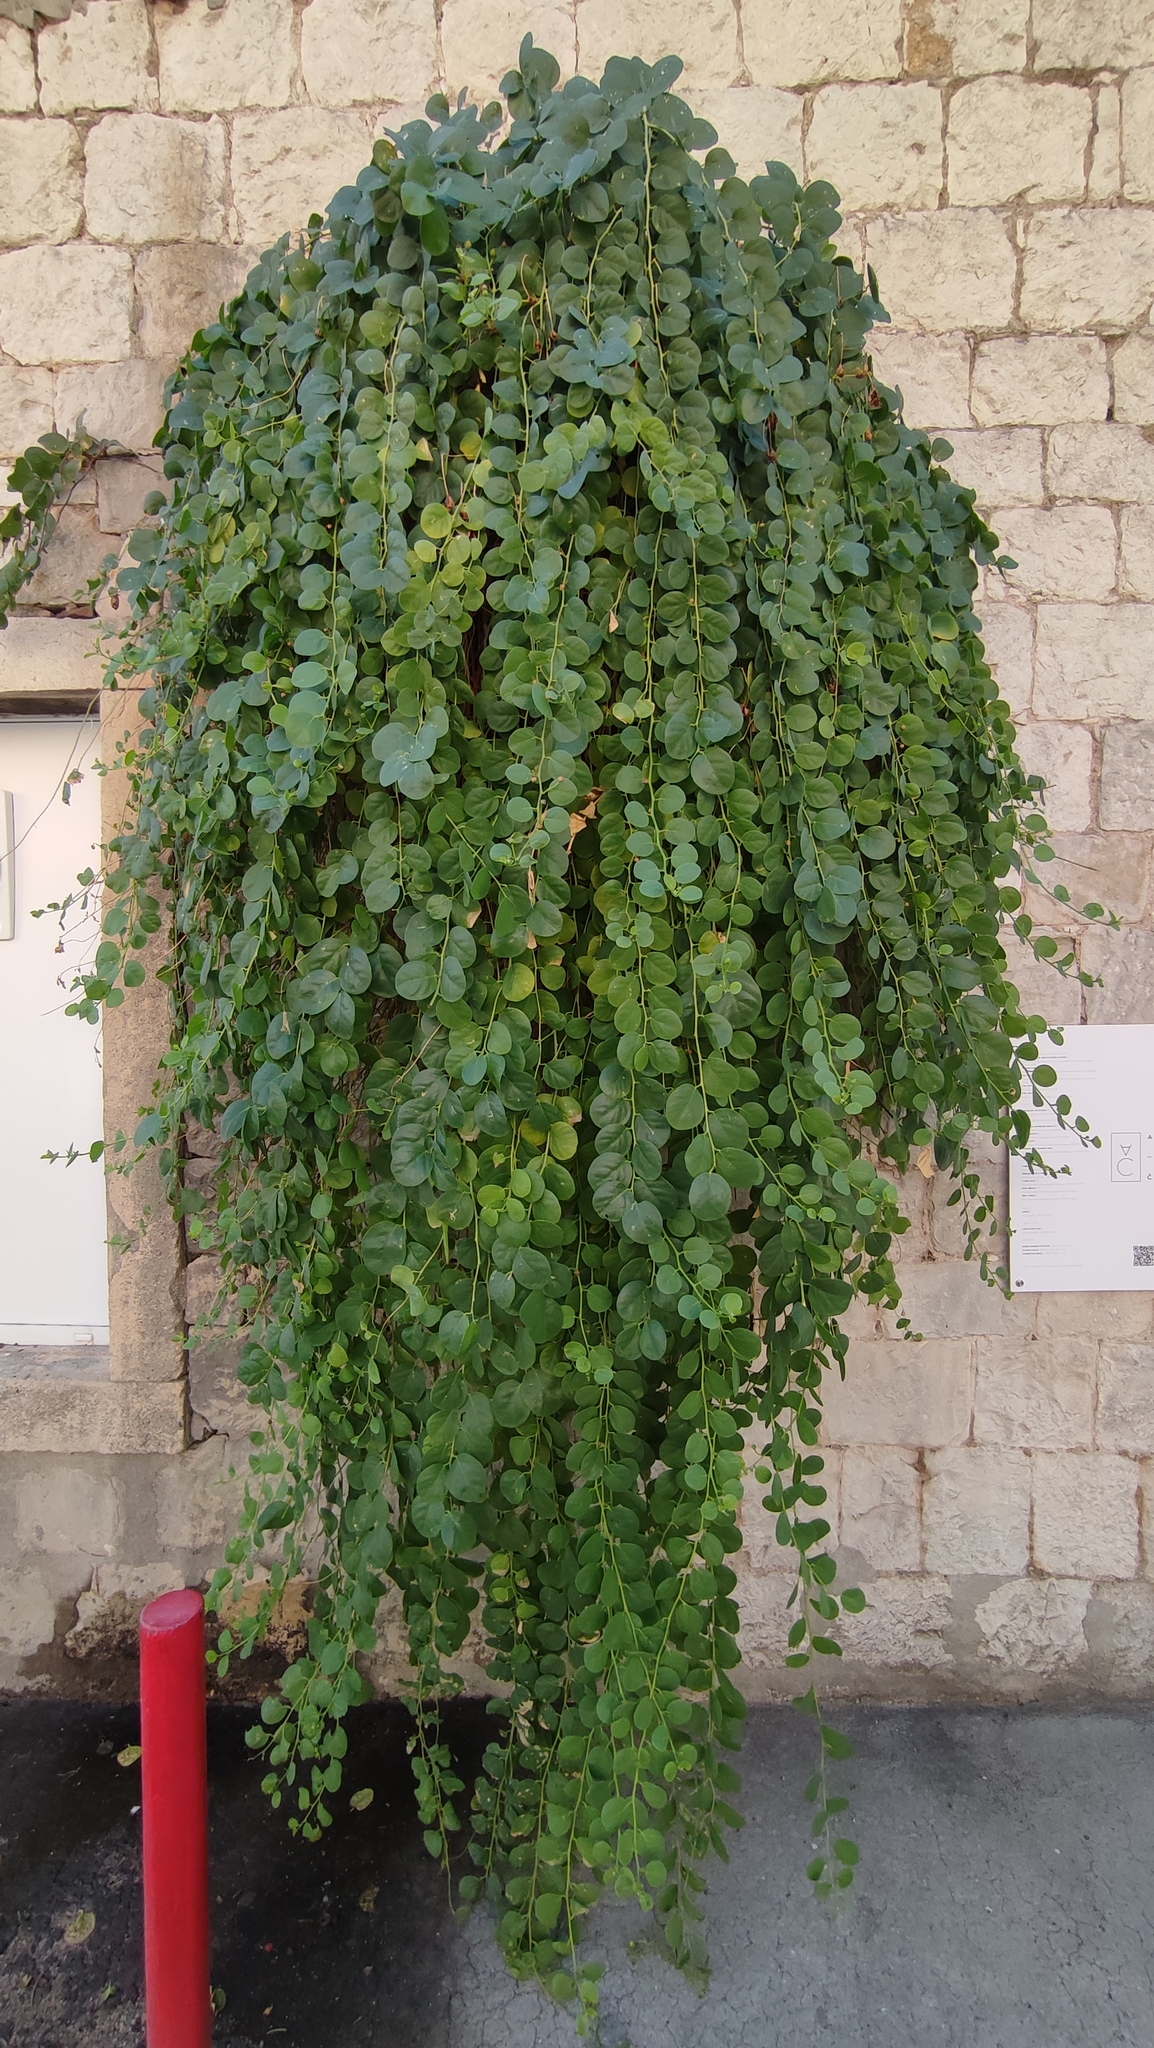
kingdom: Plantae
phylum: Tracheophyta
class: Magnoliopsida
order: Brassicales
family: Capparaceae
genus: Capparis
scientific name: Capparis orientalis
